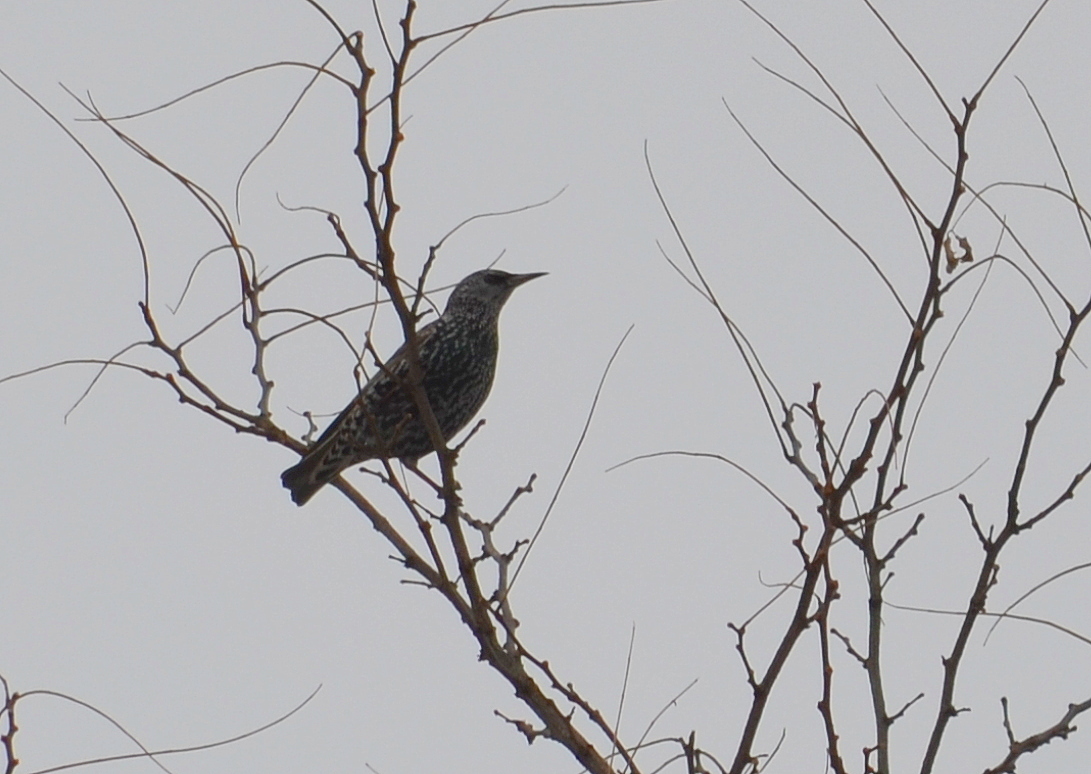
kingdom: Animalia
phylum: Chordata
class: Aves
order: Passeriformes
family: Sturnidae
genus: Sturnus
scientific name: Sturnus vulgaris
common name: Common starling
